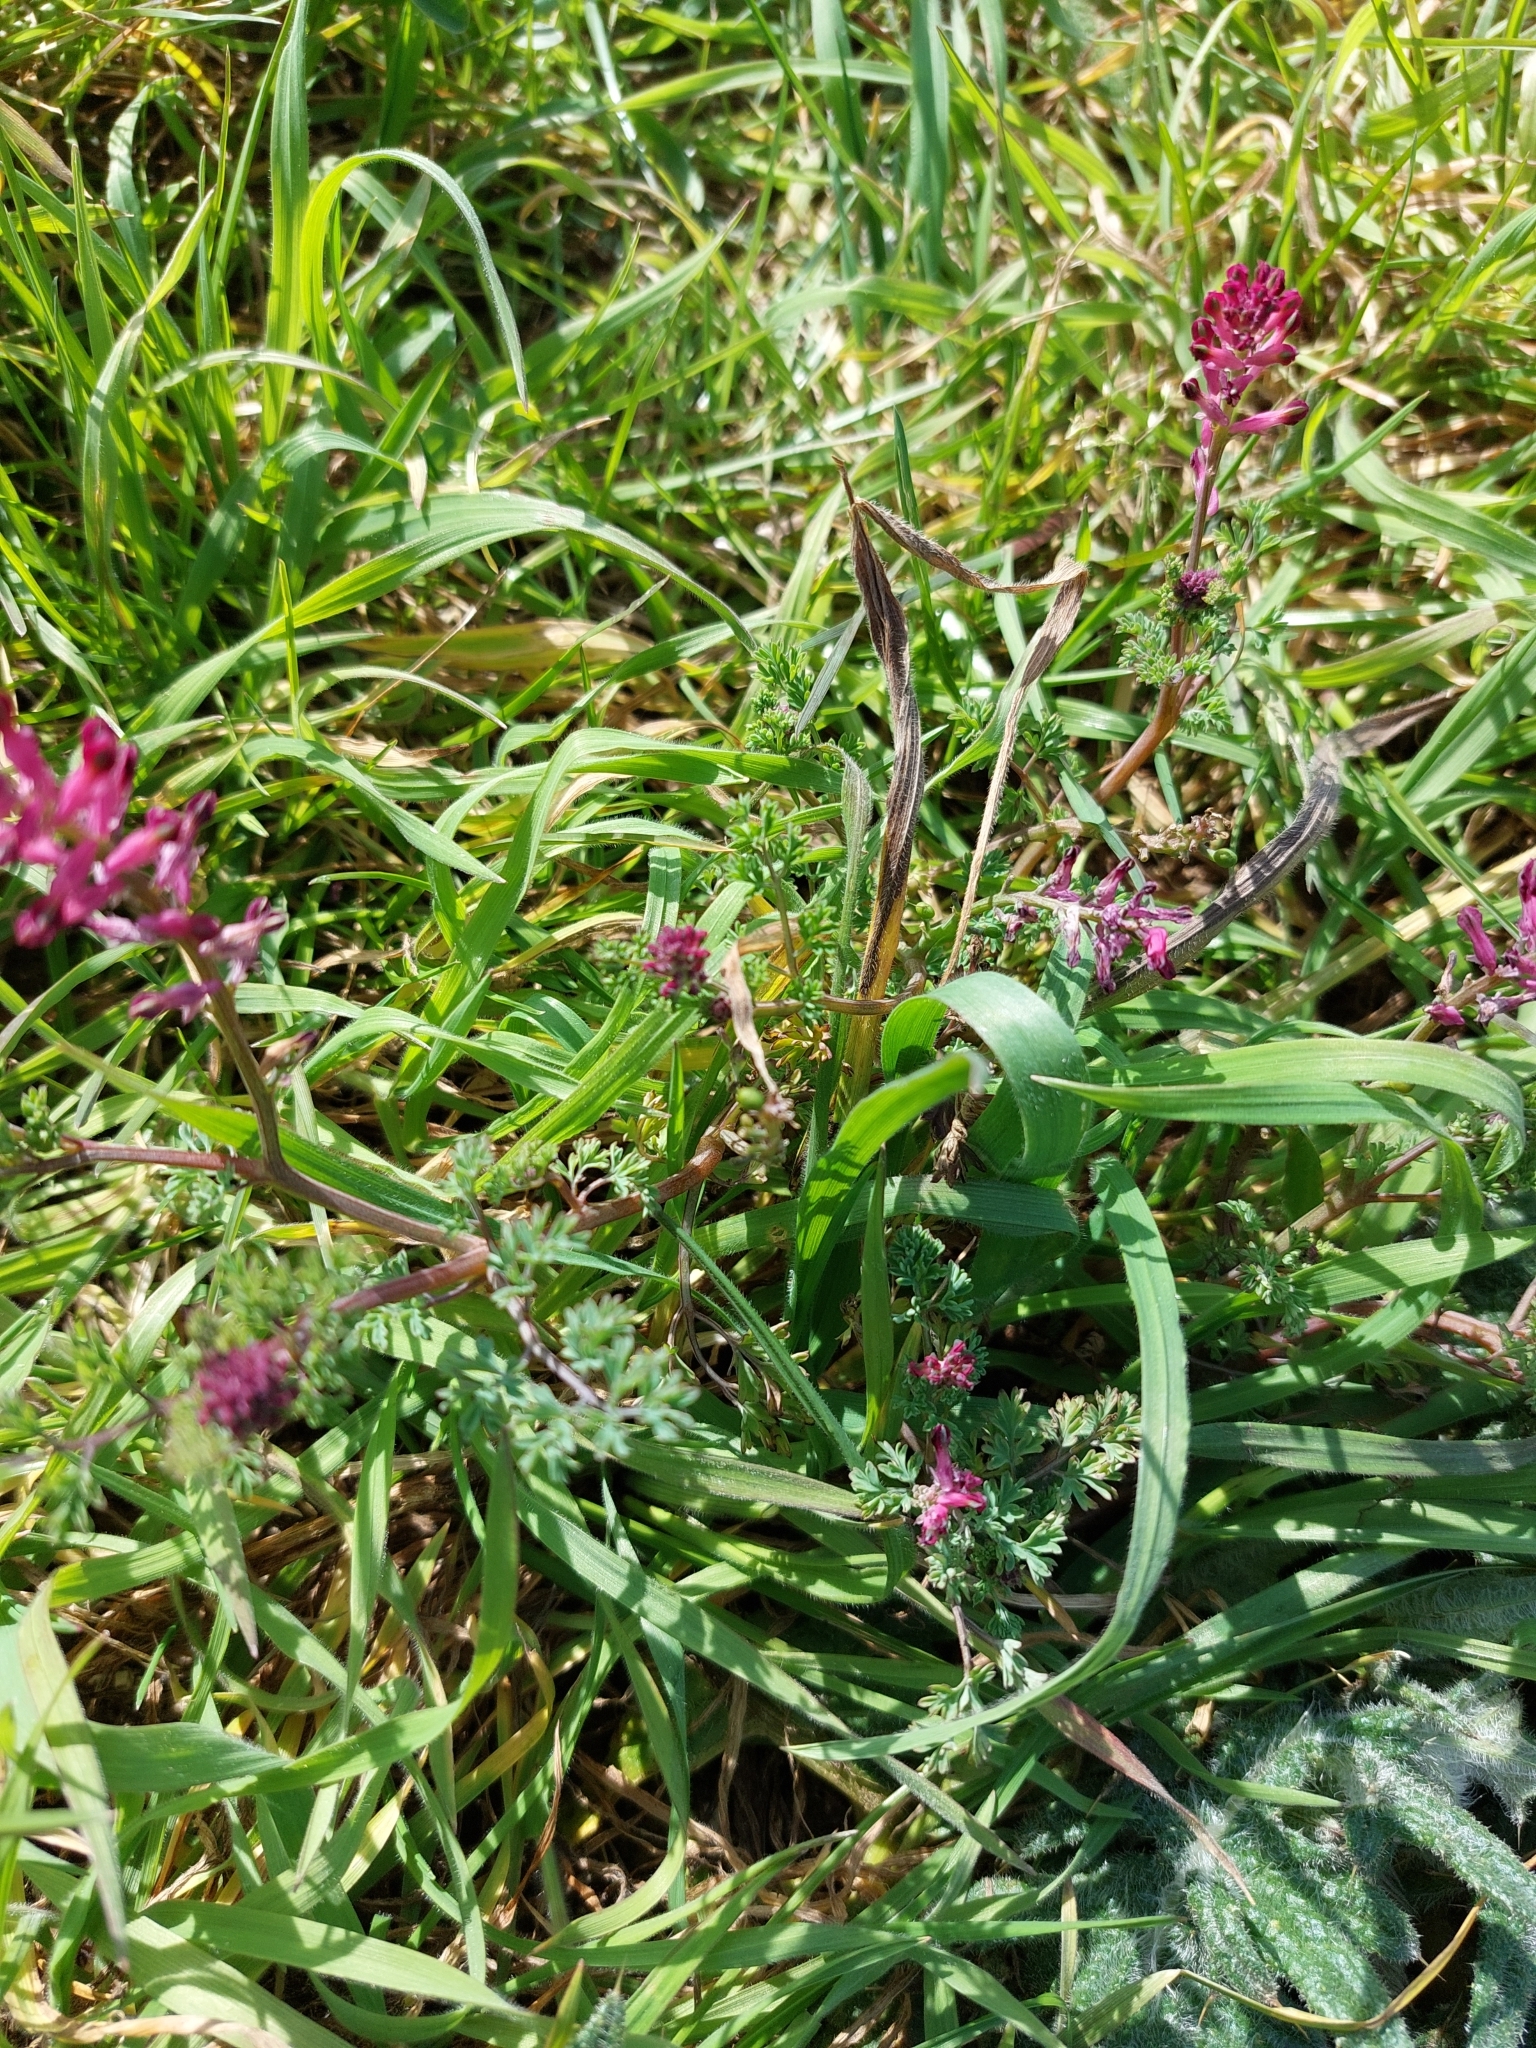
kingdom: Plantae
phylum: Tracheophyta
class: Magnoliopsida
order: Ranunculales
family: Papaveraceae
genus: Fumaria
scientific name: Fumaria officinalis
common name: Common fumitory
